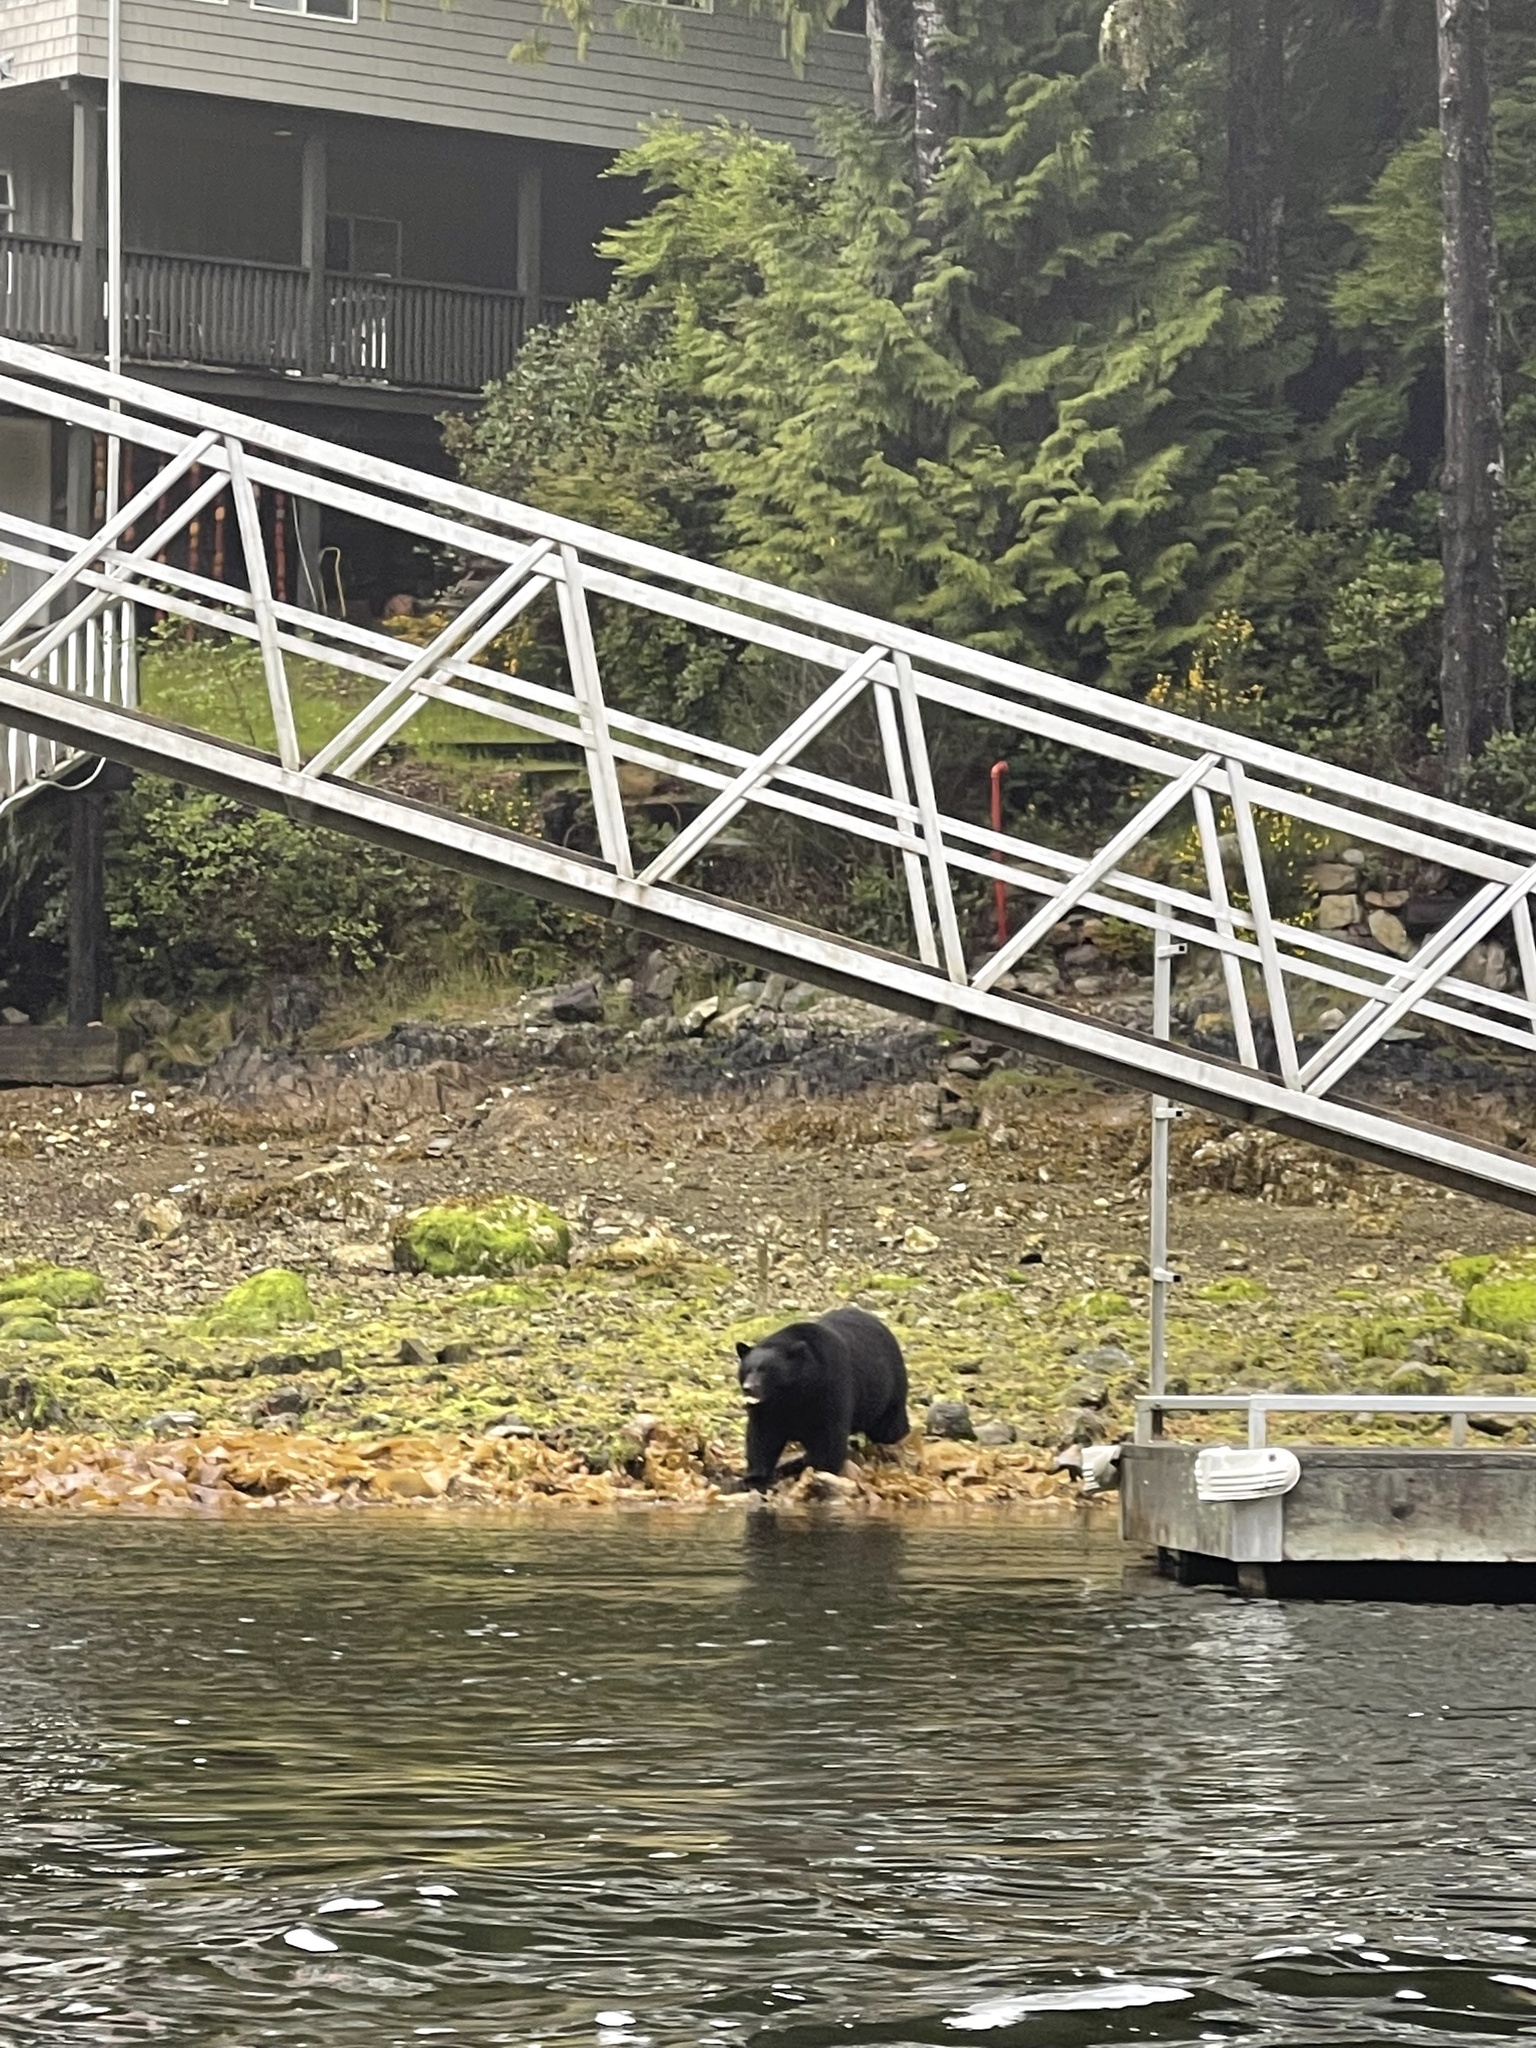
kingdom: Animalia
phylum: Chordata
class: Mammalia
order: Carnivora
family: Ursidae
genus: Ursus
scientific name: Ursus americanus
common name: American black bear
